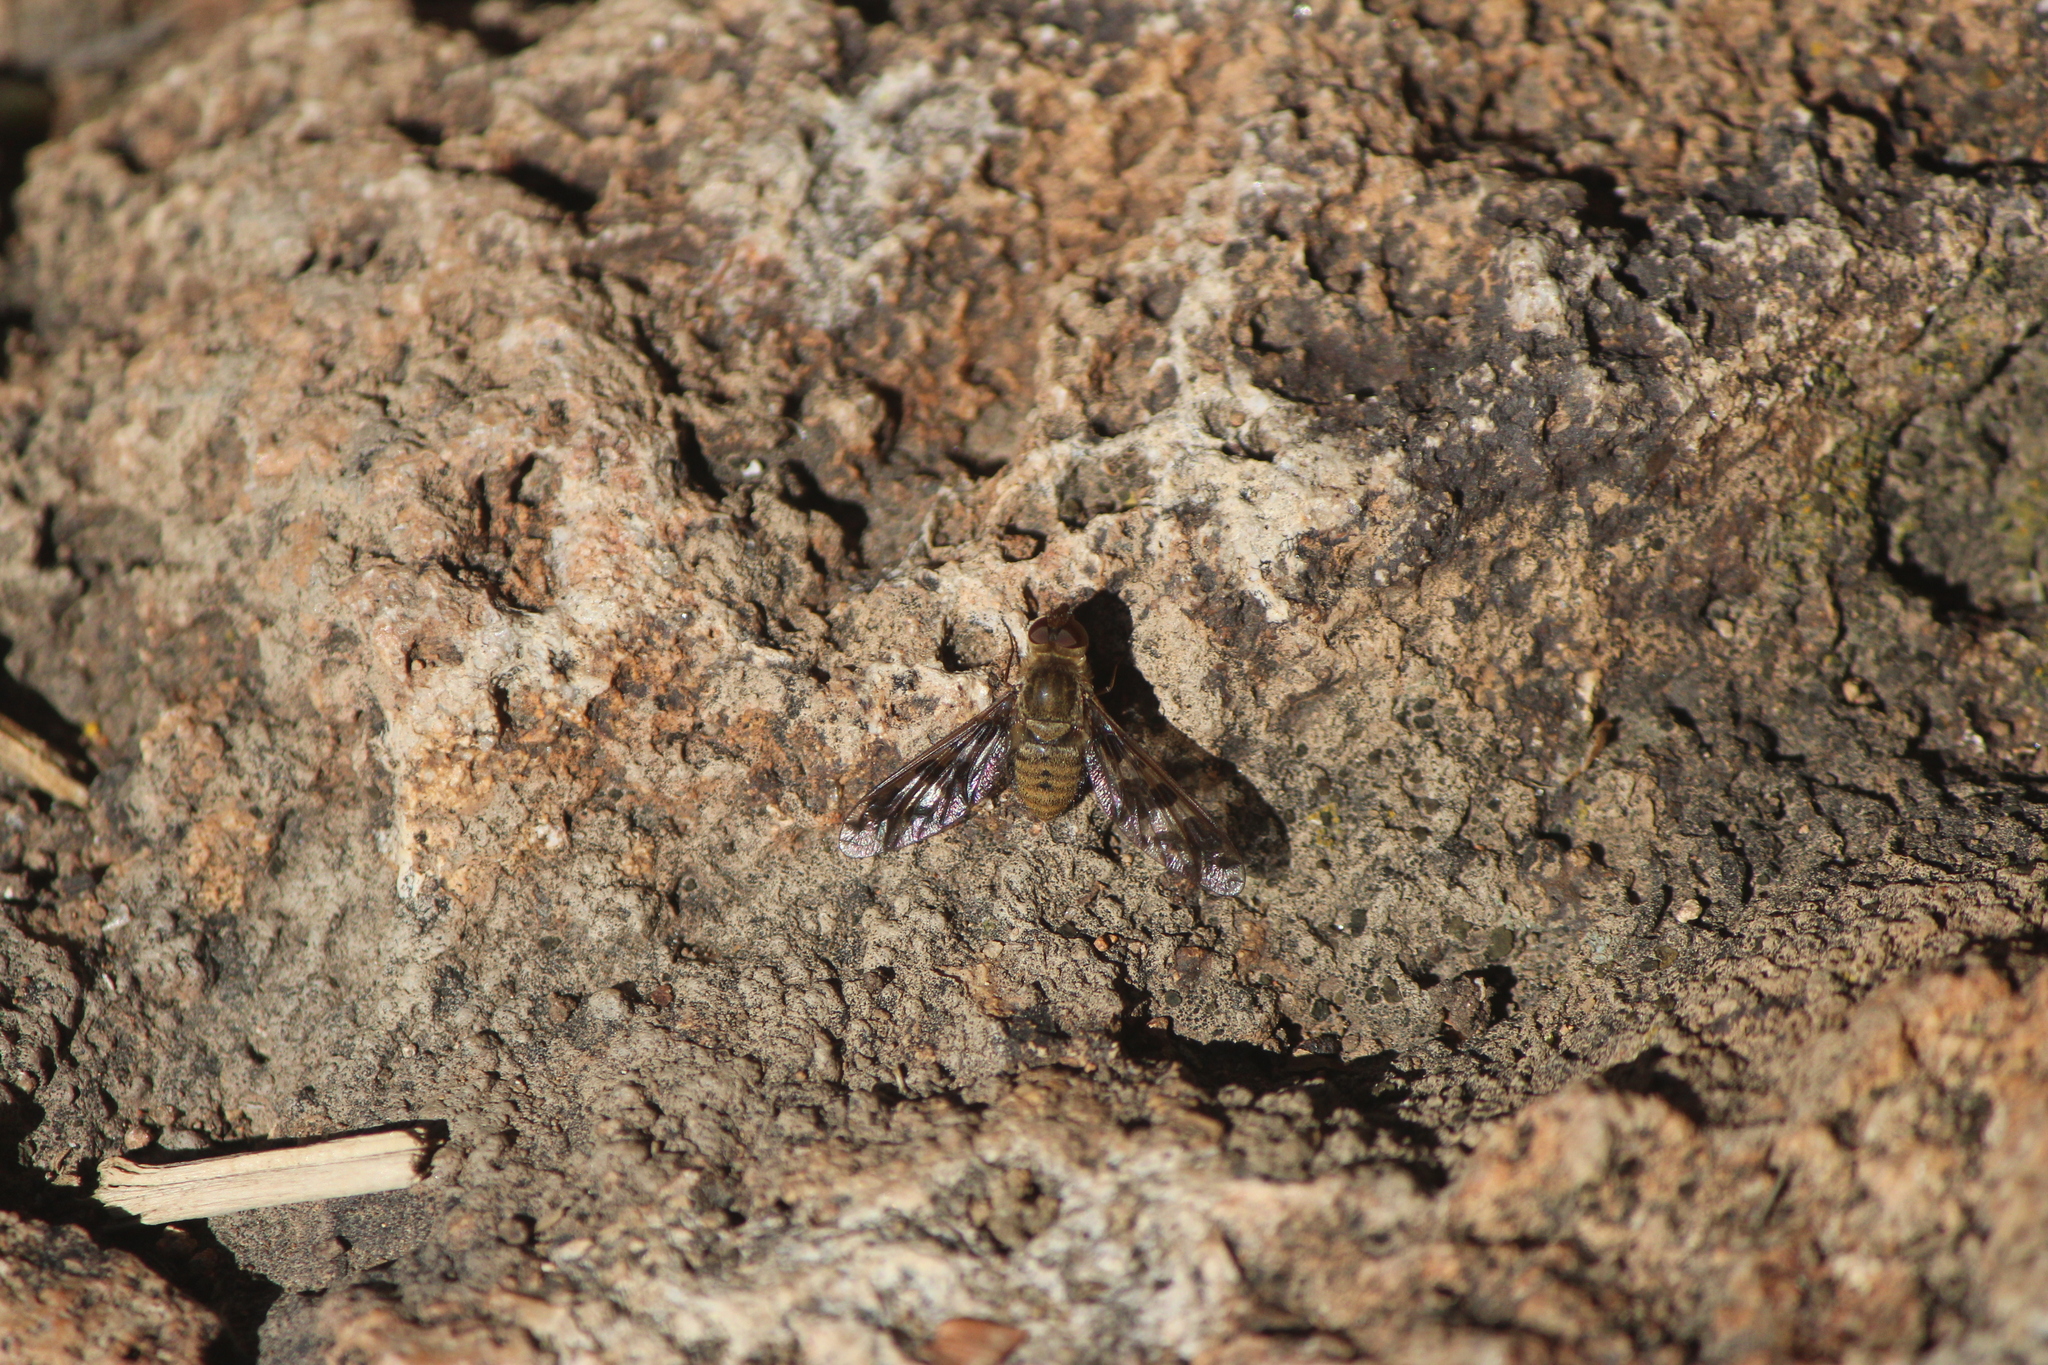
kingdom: Animalia
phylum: Arthropoda
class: Insecta
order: Diptera
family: Bombyliidae
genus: Dipalta
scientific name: Dipalta serpentina
